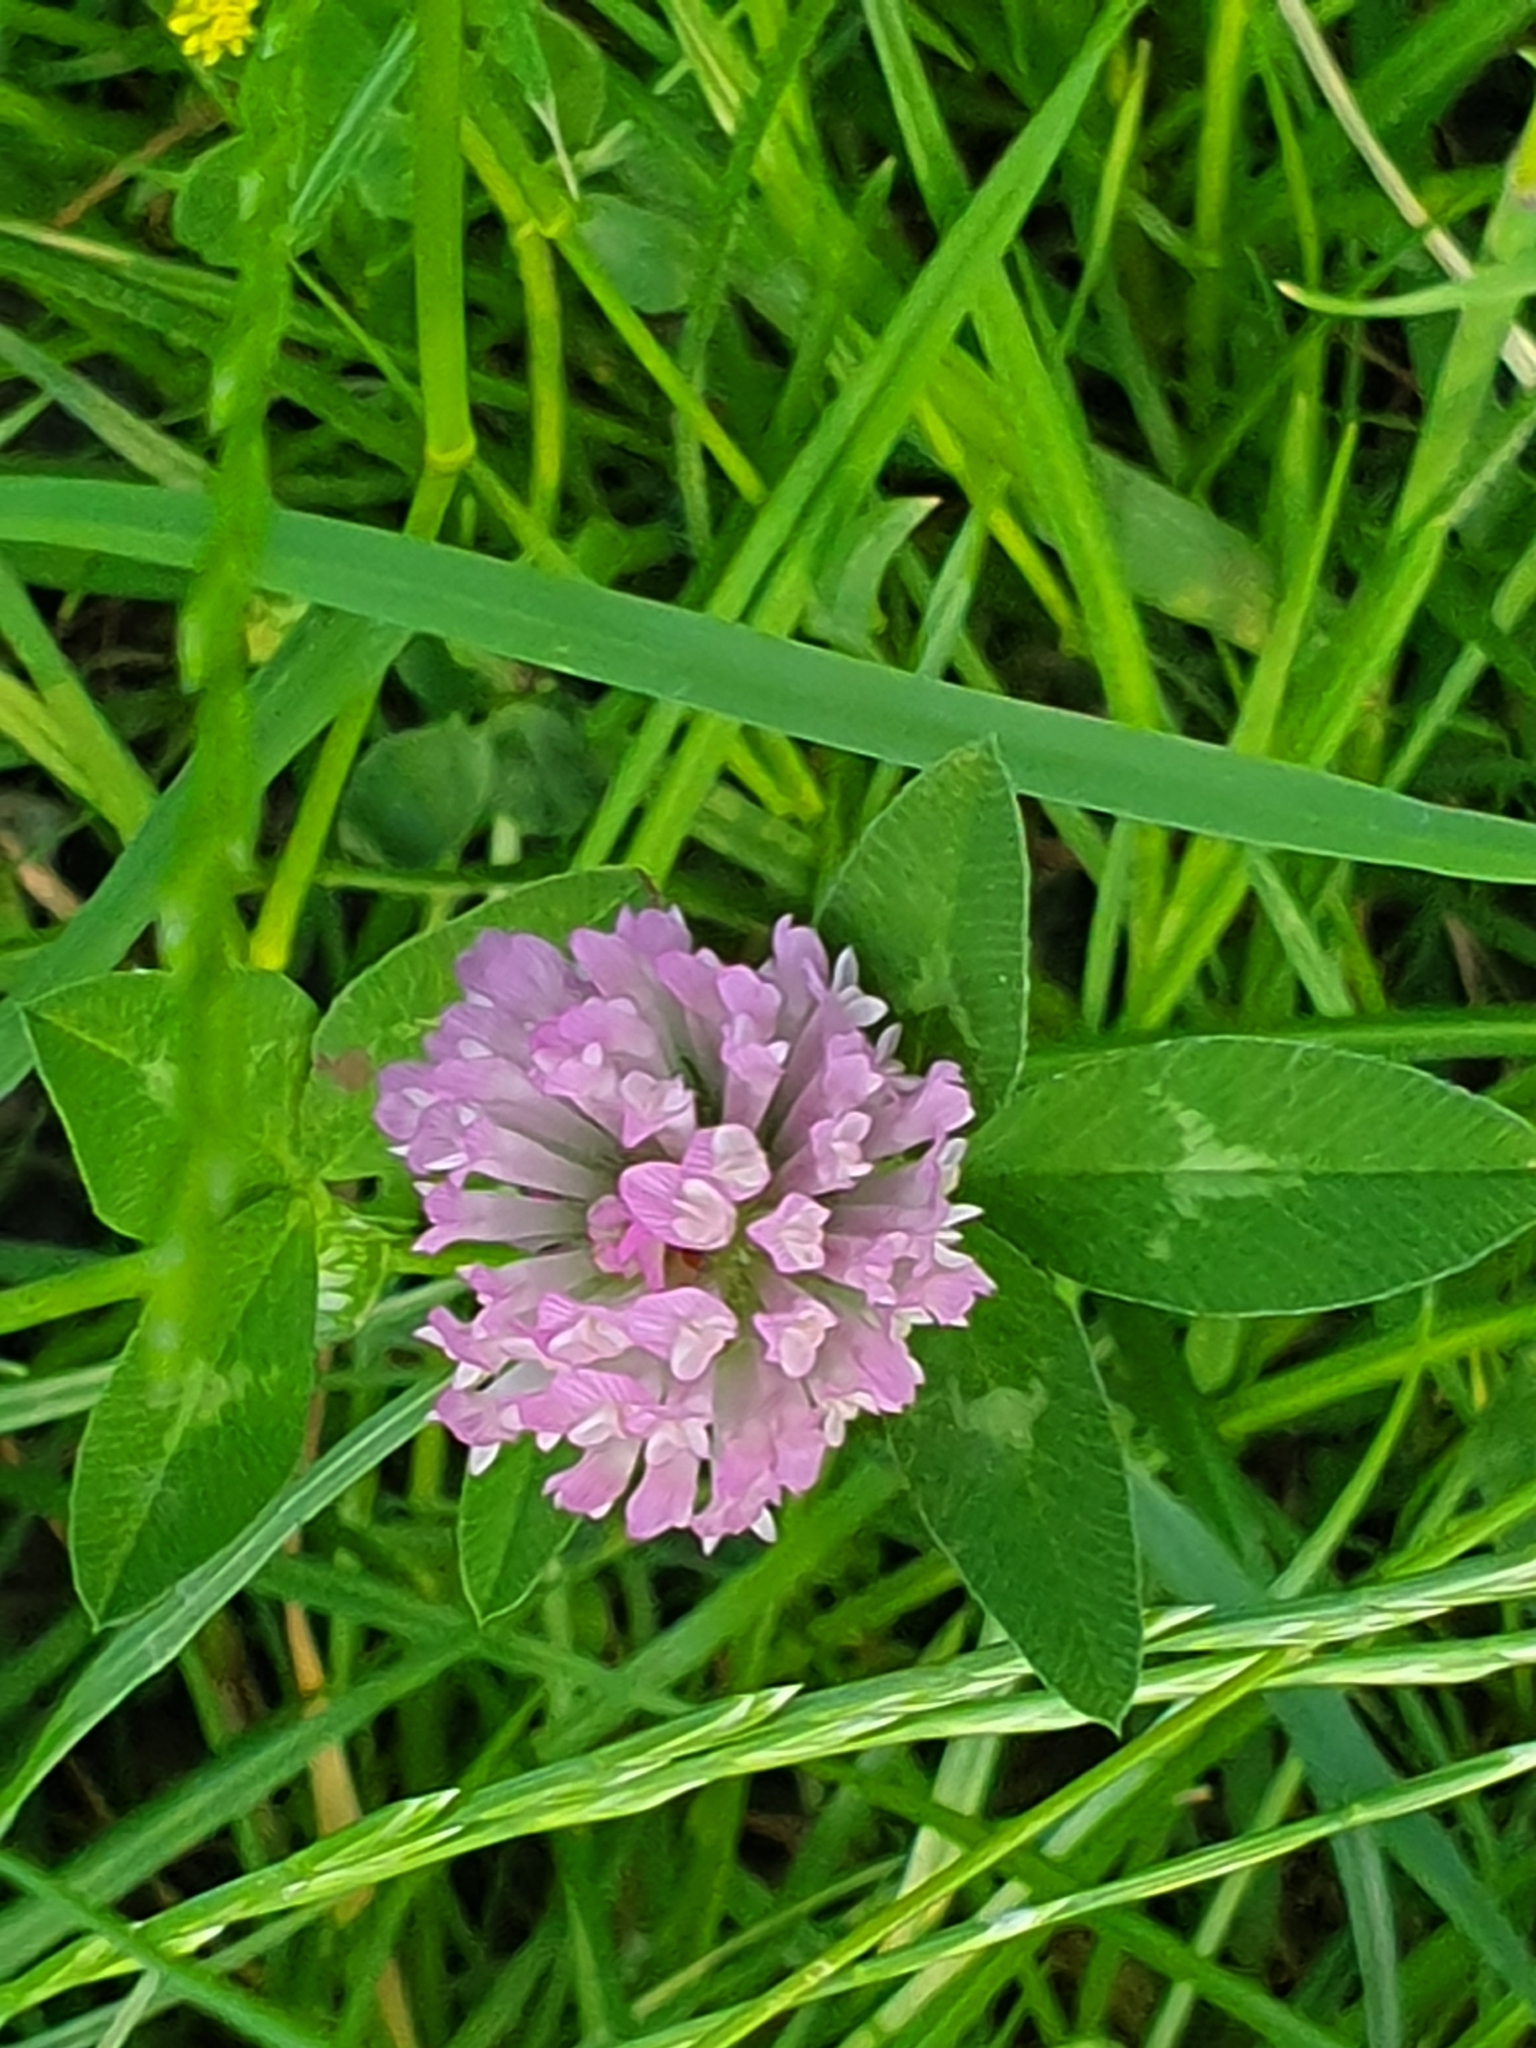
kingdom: Plantae
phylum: Tracheophyta
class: Magnoliopsida
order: Fabales
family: Fabaceae
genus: Trifolium
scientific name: Trifolium pratense
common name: Red clover
